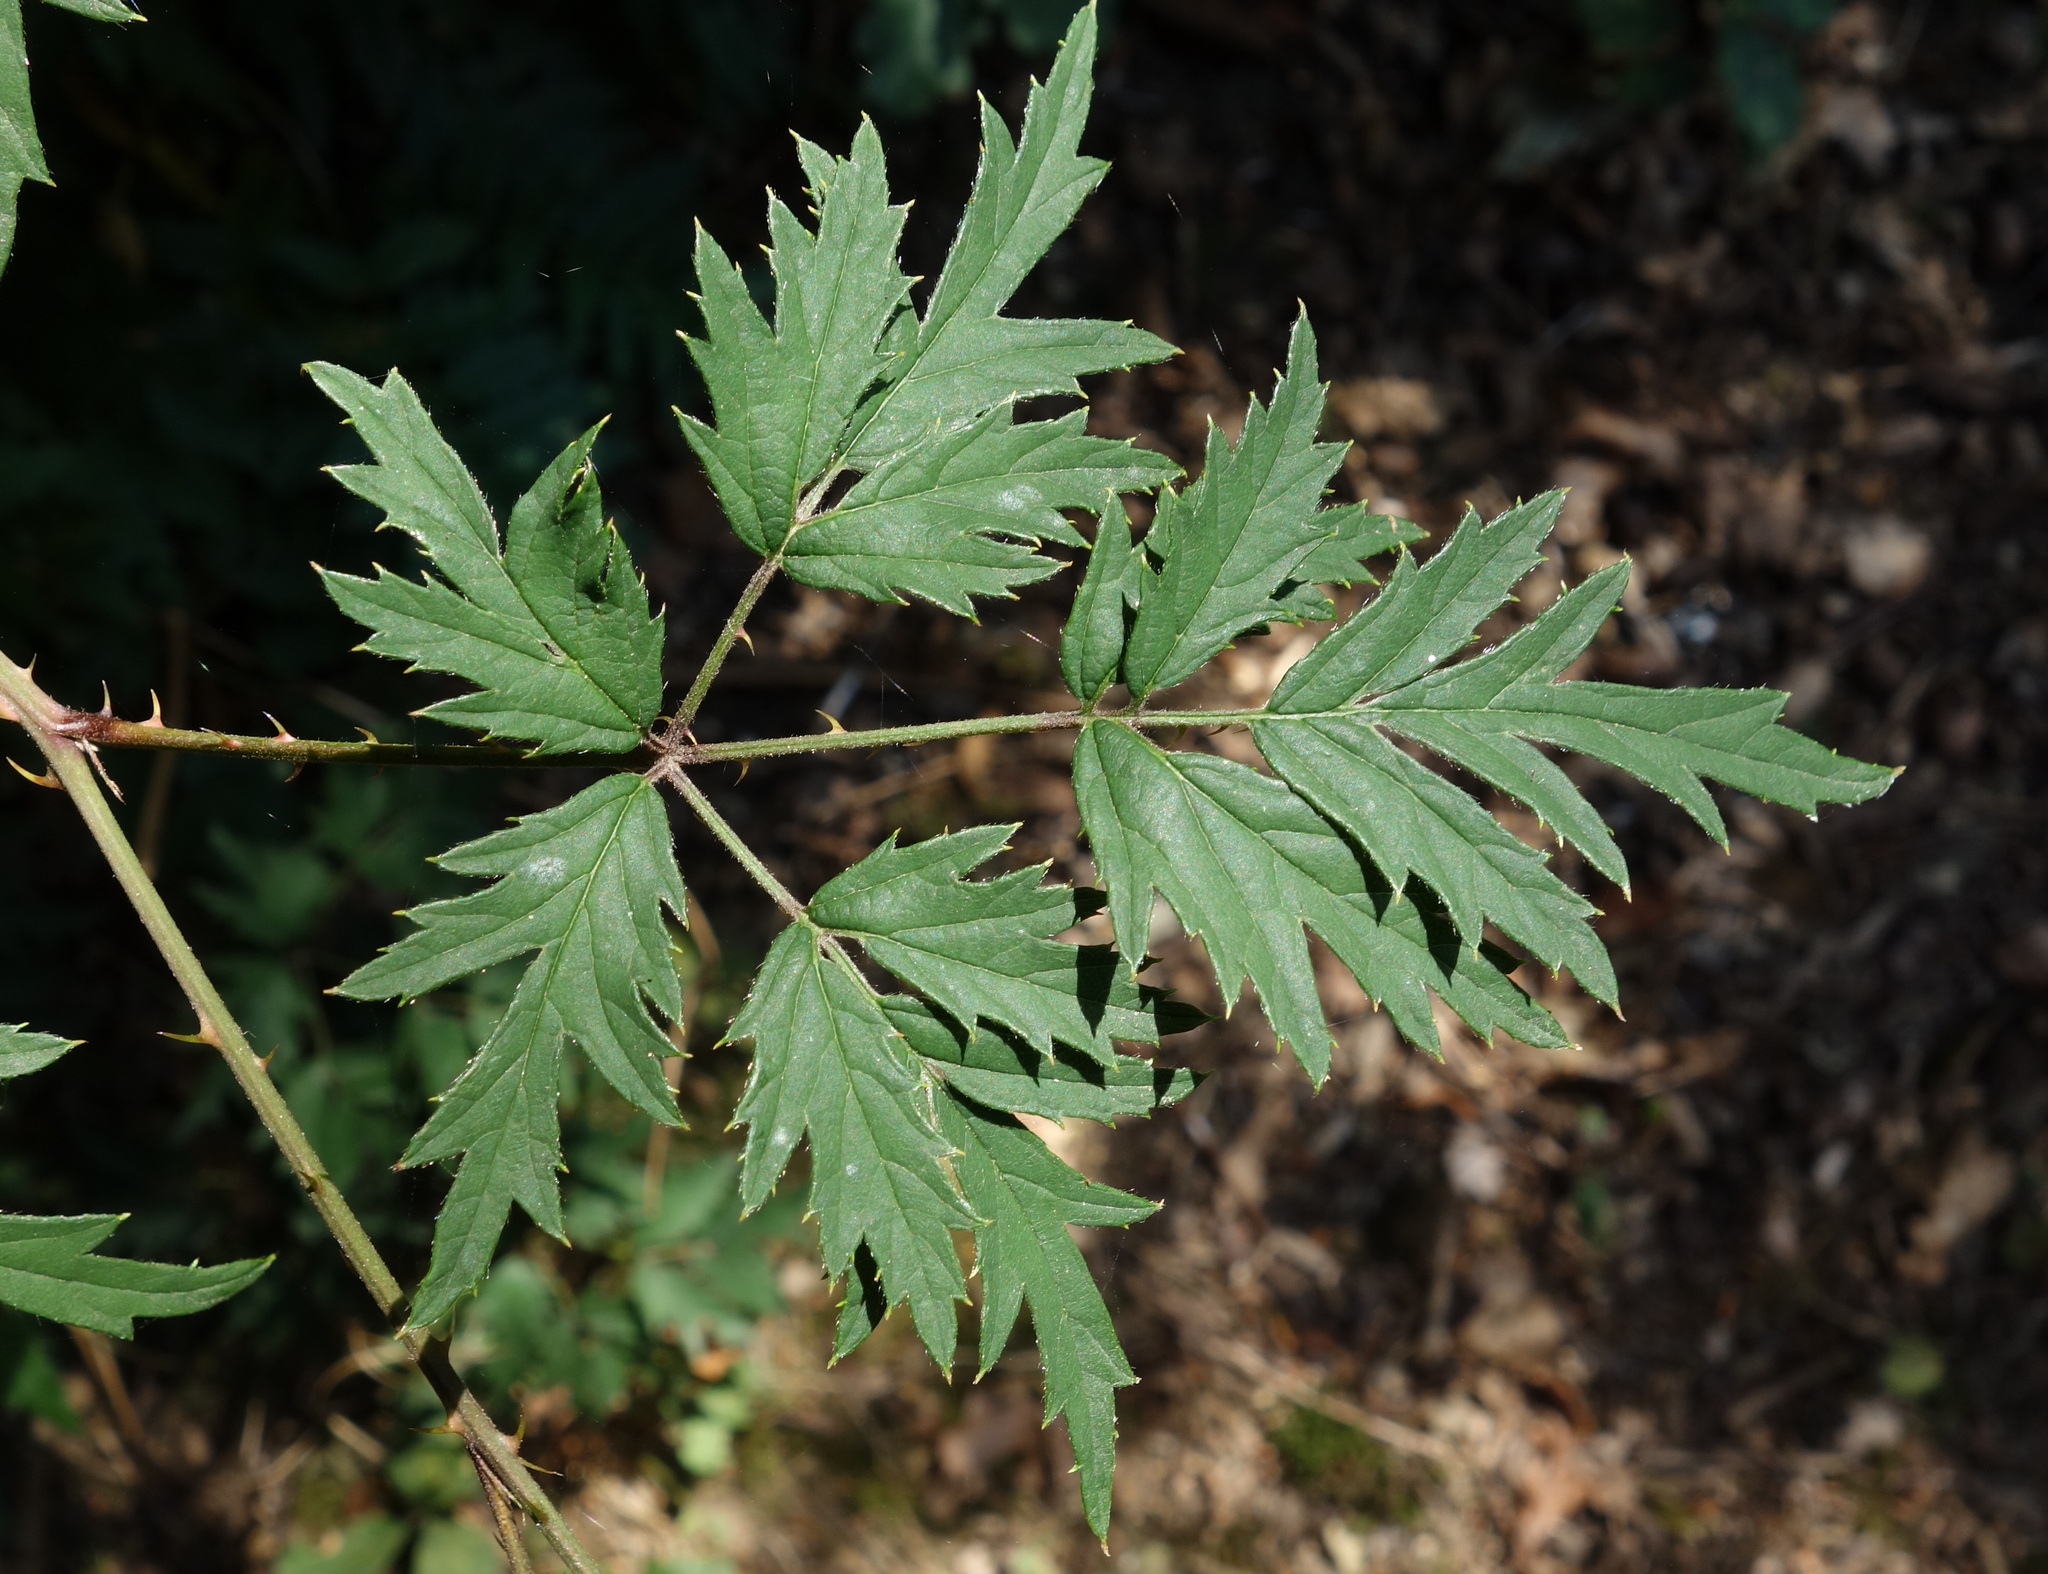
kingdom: Plantae
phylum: Tracheophyta
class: Magnoliopsida
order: Rosales
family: Rosaceae
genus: Rubus
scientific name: Rubus laciniatus
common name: Evergreen blackberry
